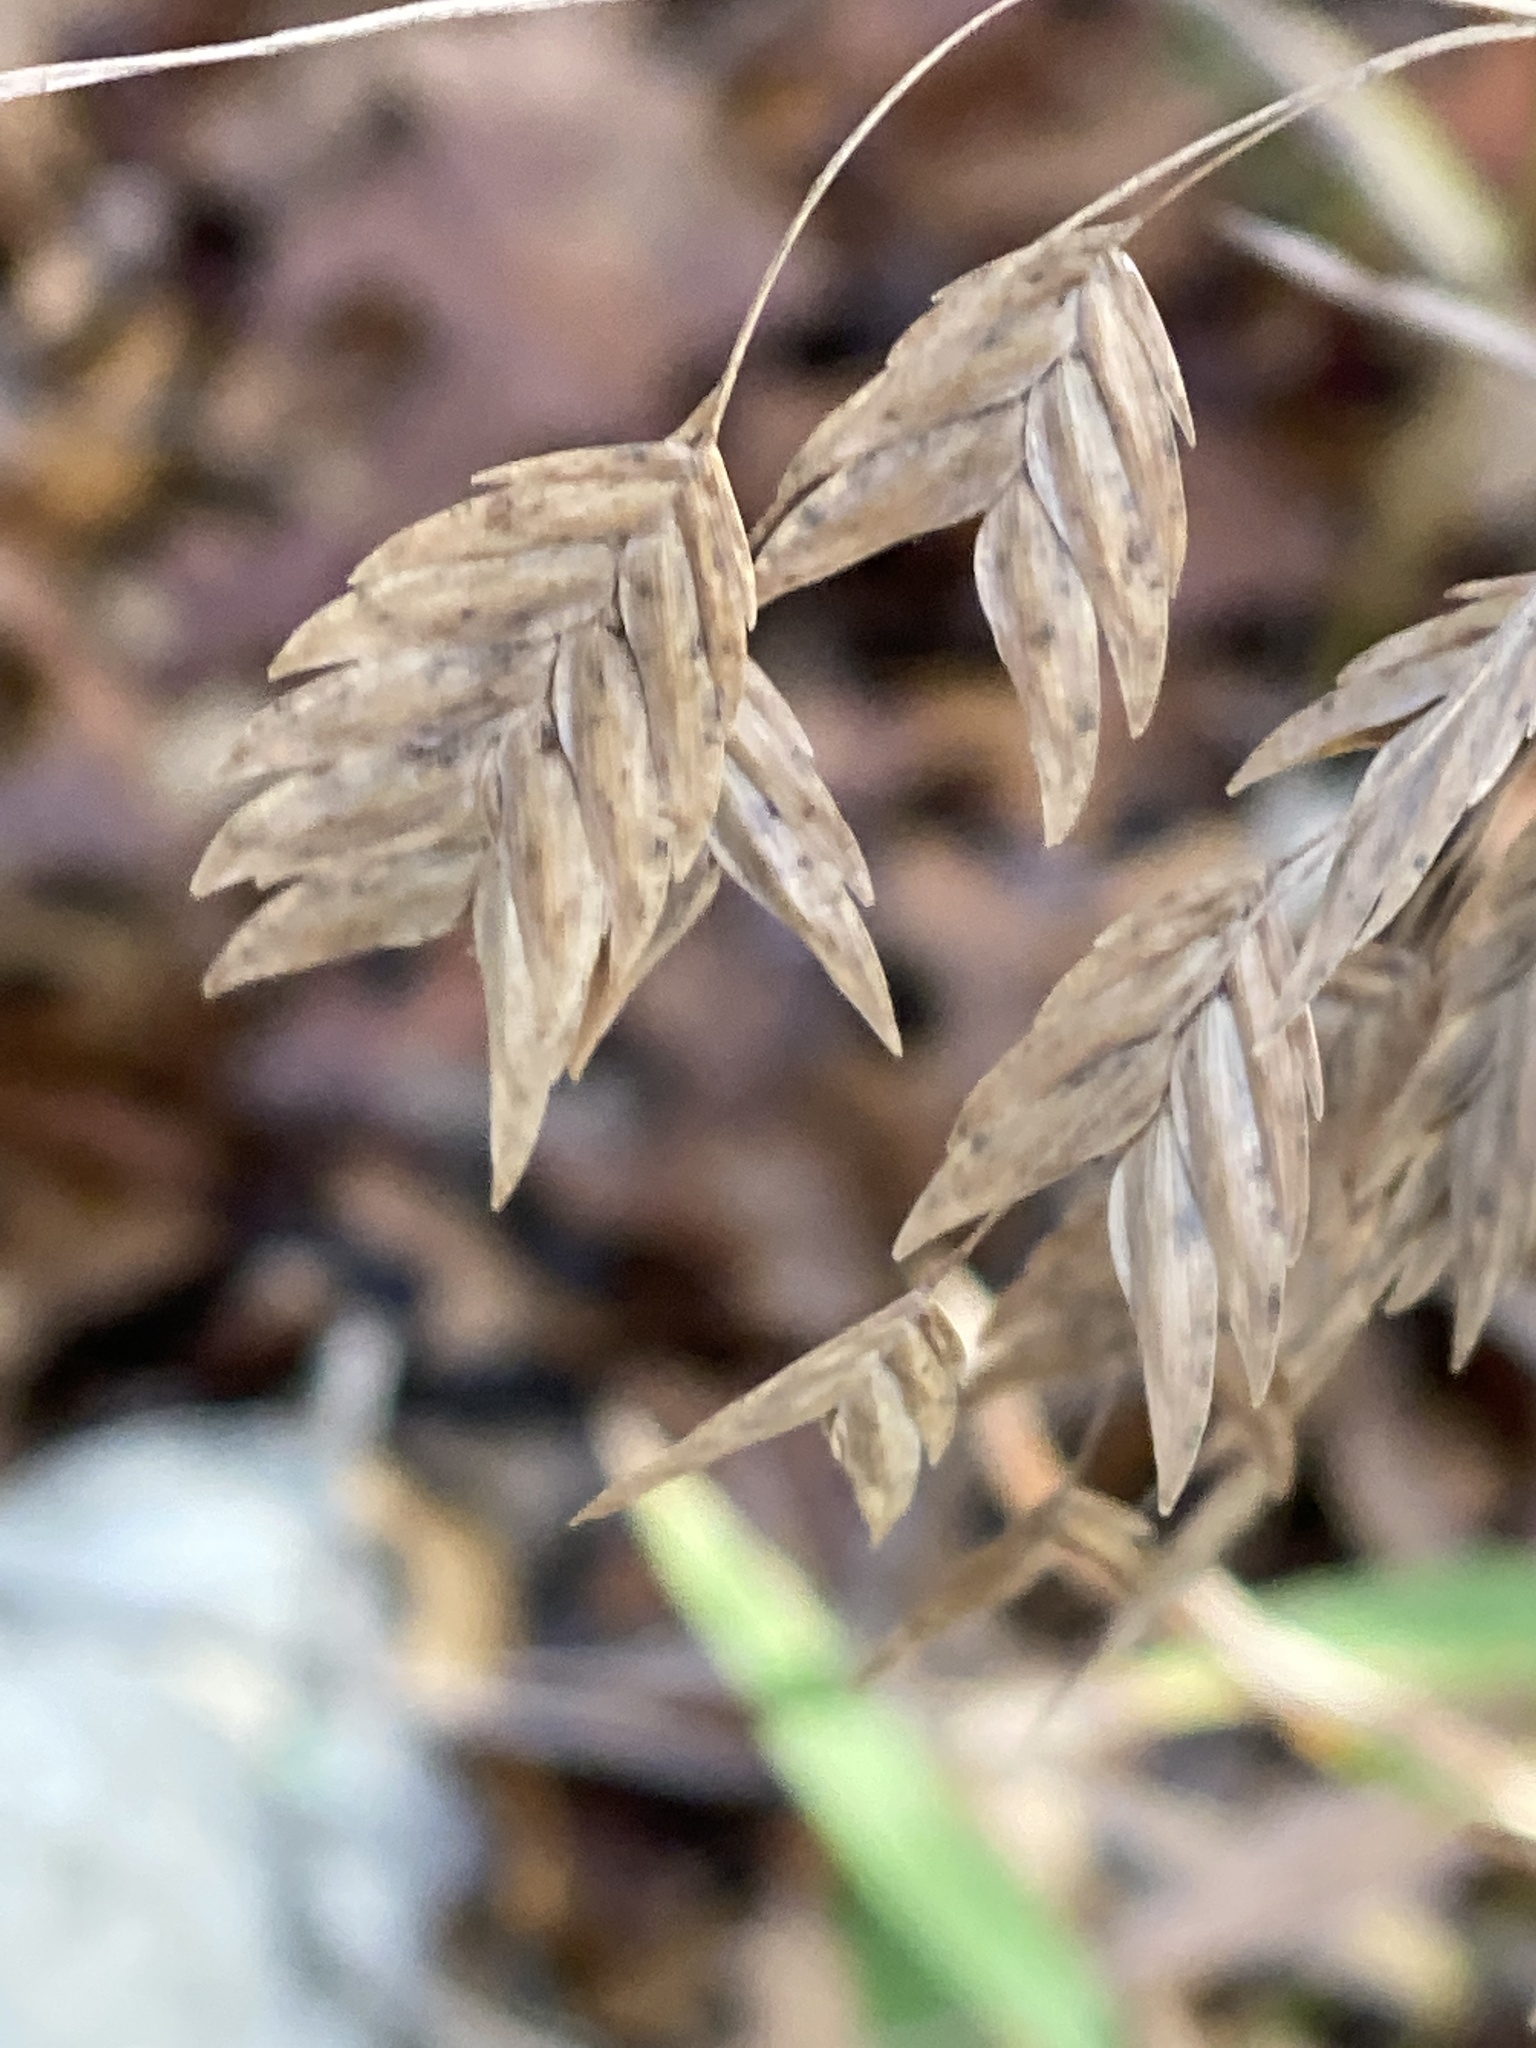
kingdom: Plantae
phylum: Tracheophyta
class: Liliopsida
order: Poales
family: Poaceae
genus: Chasmanthium
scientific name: Chasmanthium latifolium
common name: Broad-leaved chasmanthium
